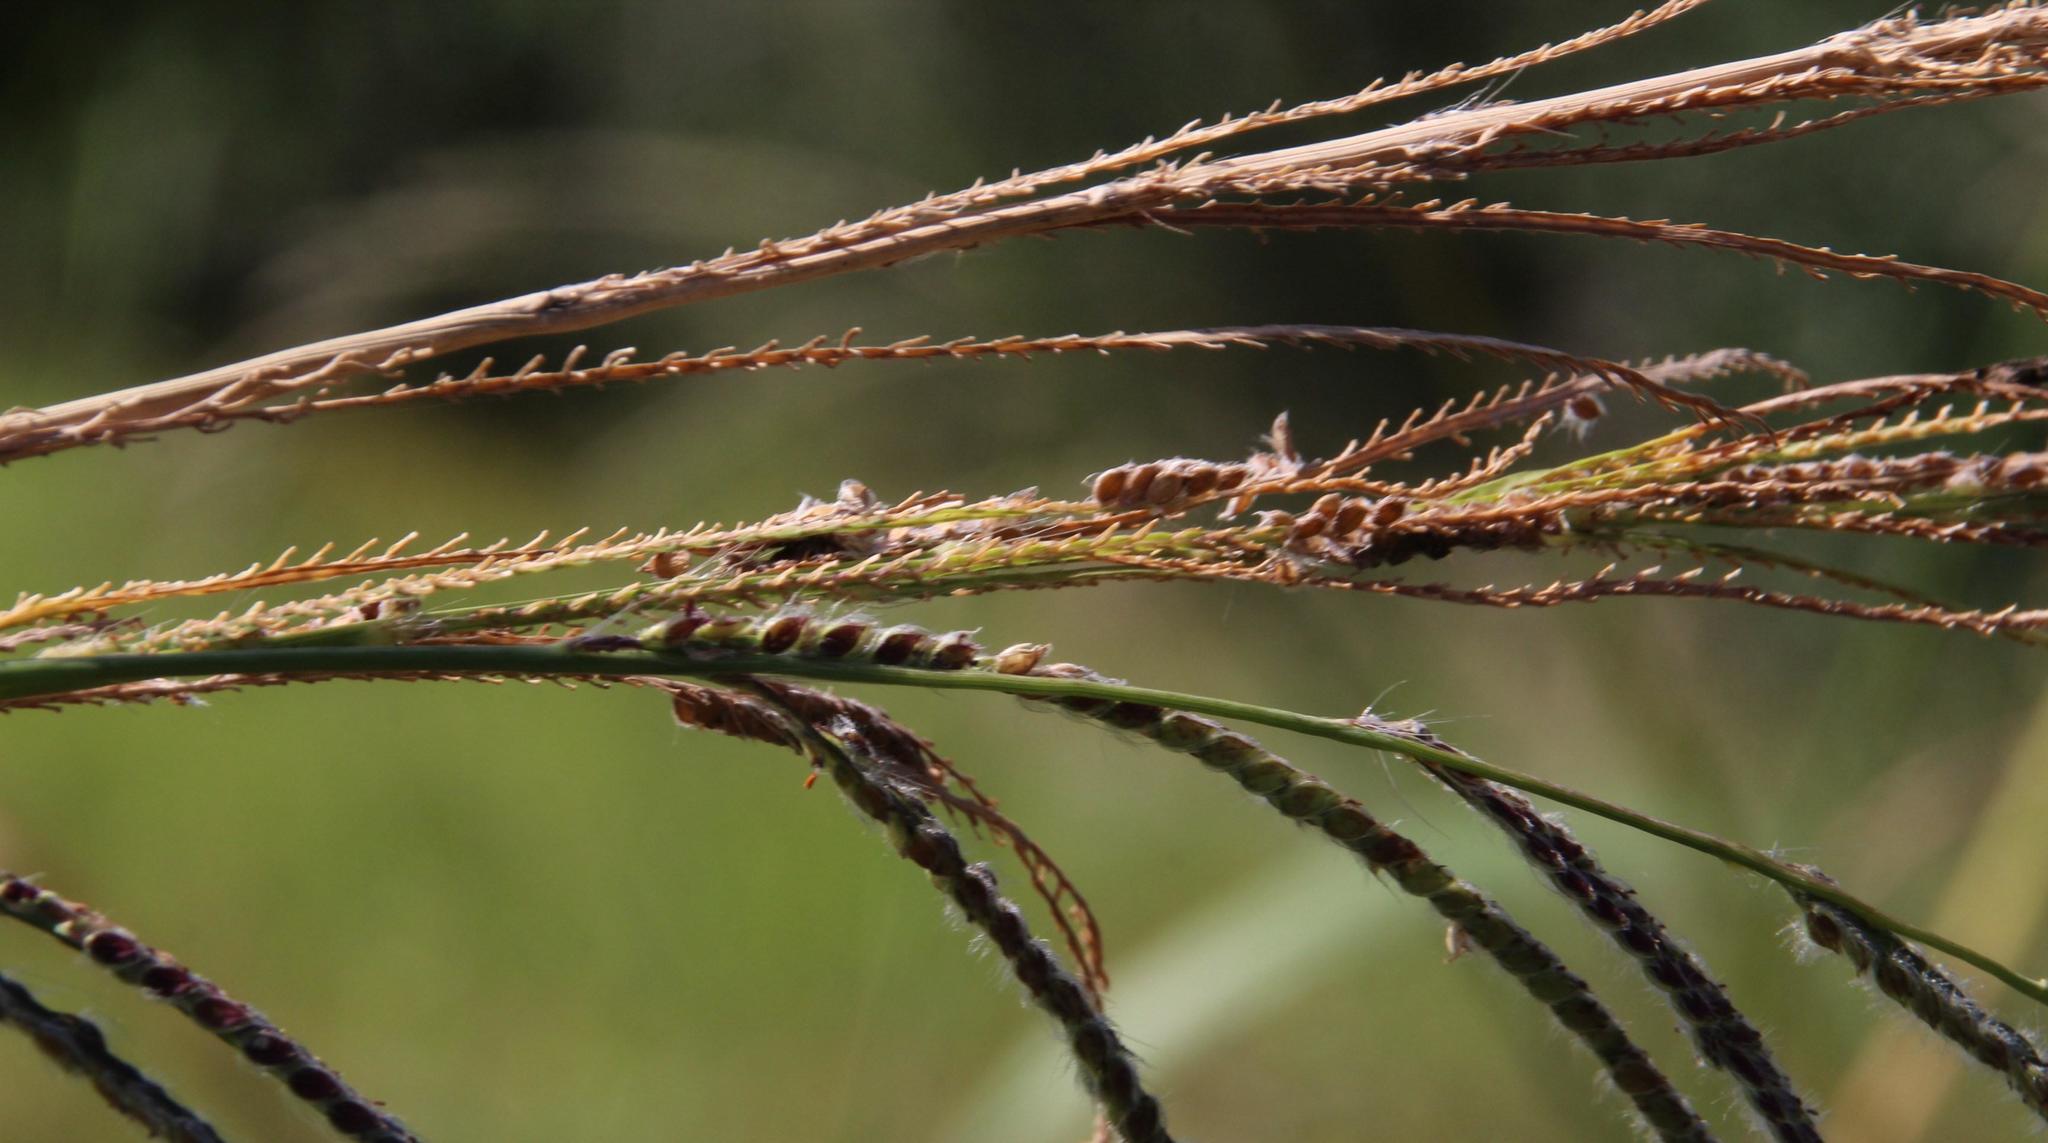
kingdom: Plantae
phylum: Tracheophyta
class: Liliopsida
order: Poales
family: Poaceae
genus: Paspalum
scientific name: Paspalum urvillei
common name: Vasey's grass
